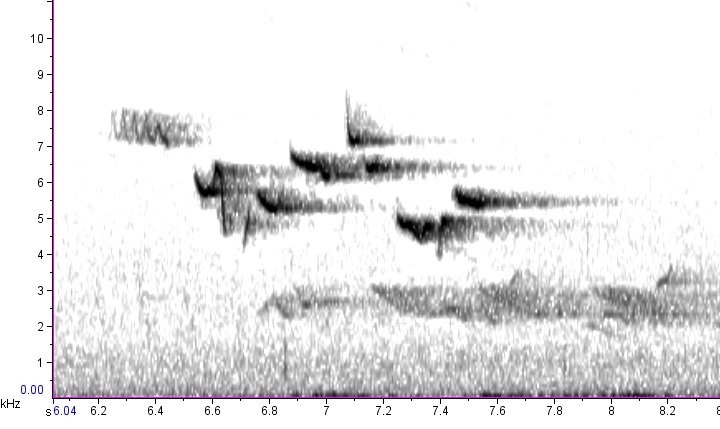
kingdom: Animalia
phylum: Chordata
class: Aves
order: Passeriformes
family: Certhiidae
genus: Certhia
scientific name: Certhia americana
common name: Brown creeper
